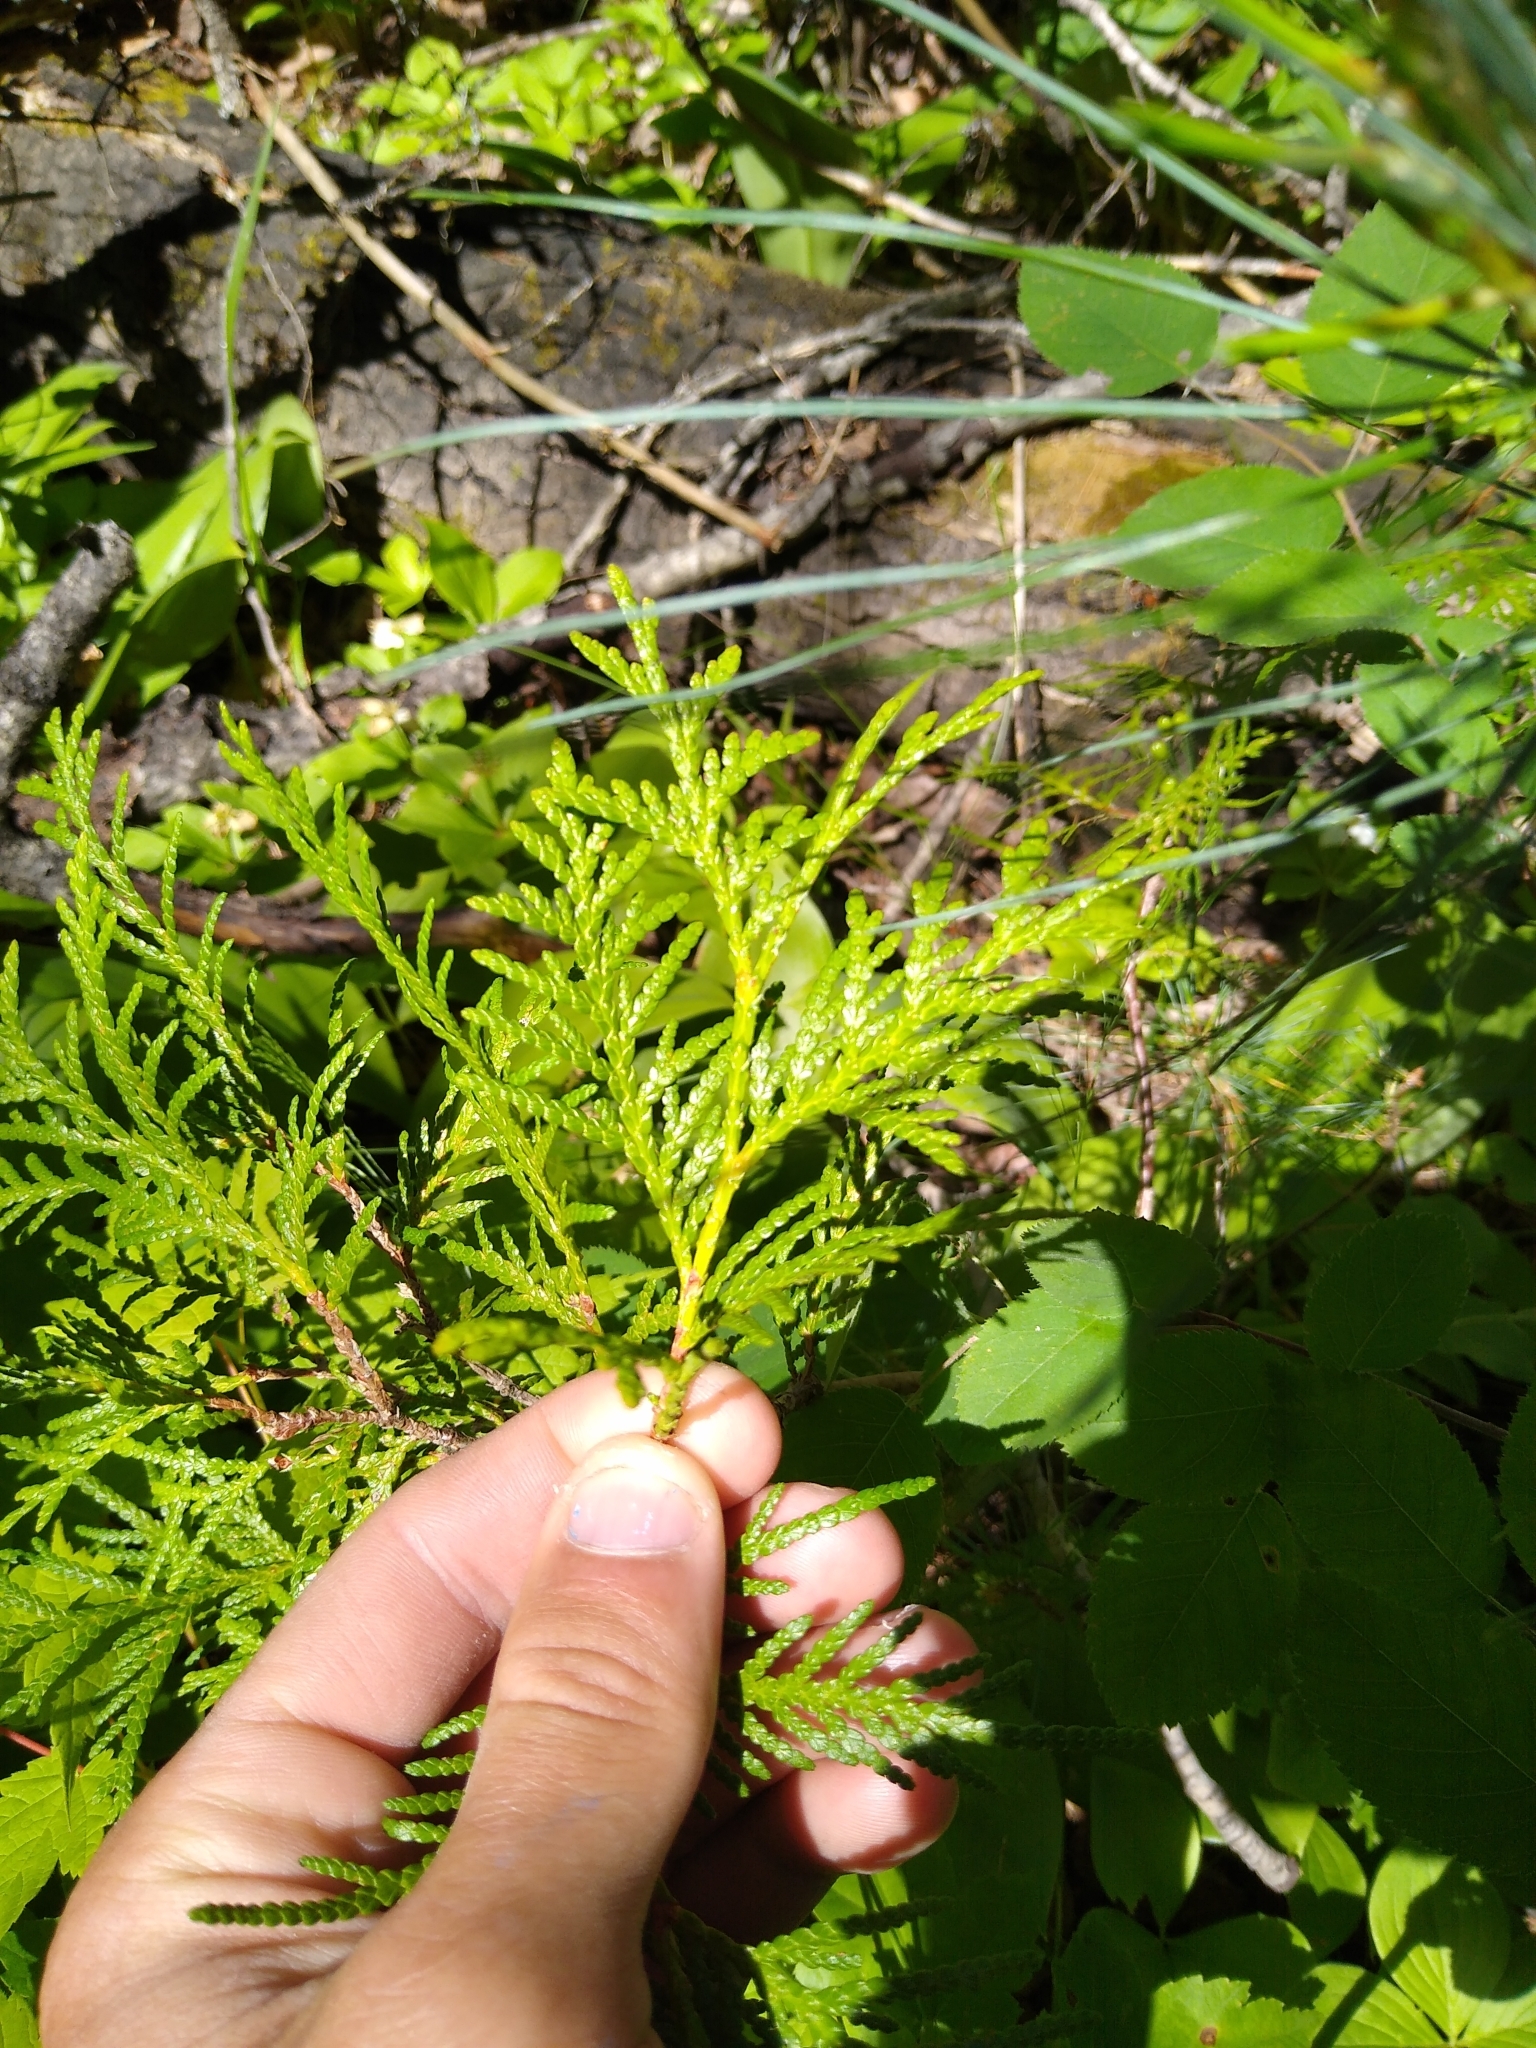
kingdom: Plantae
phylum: Tracheophyta
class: Pinopsida
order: Pinales
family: Cupressaceae
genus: Thuja
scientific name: Thuja occidentalis
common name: Northern white-cedar
